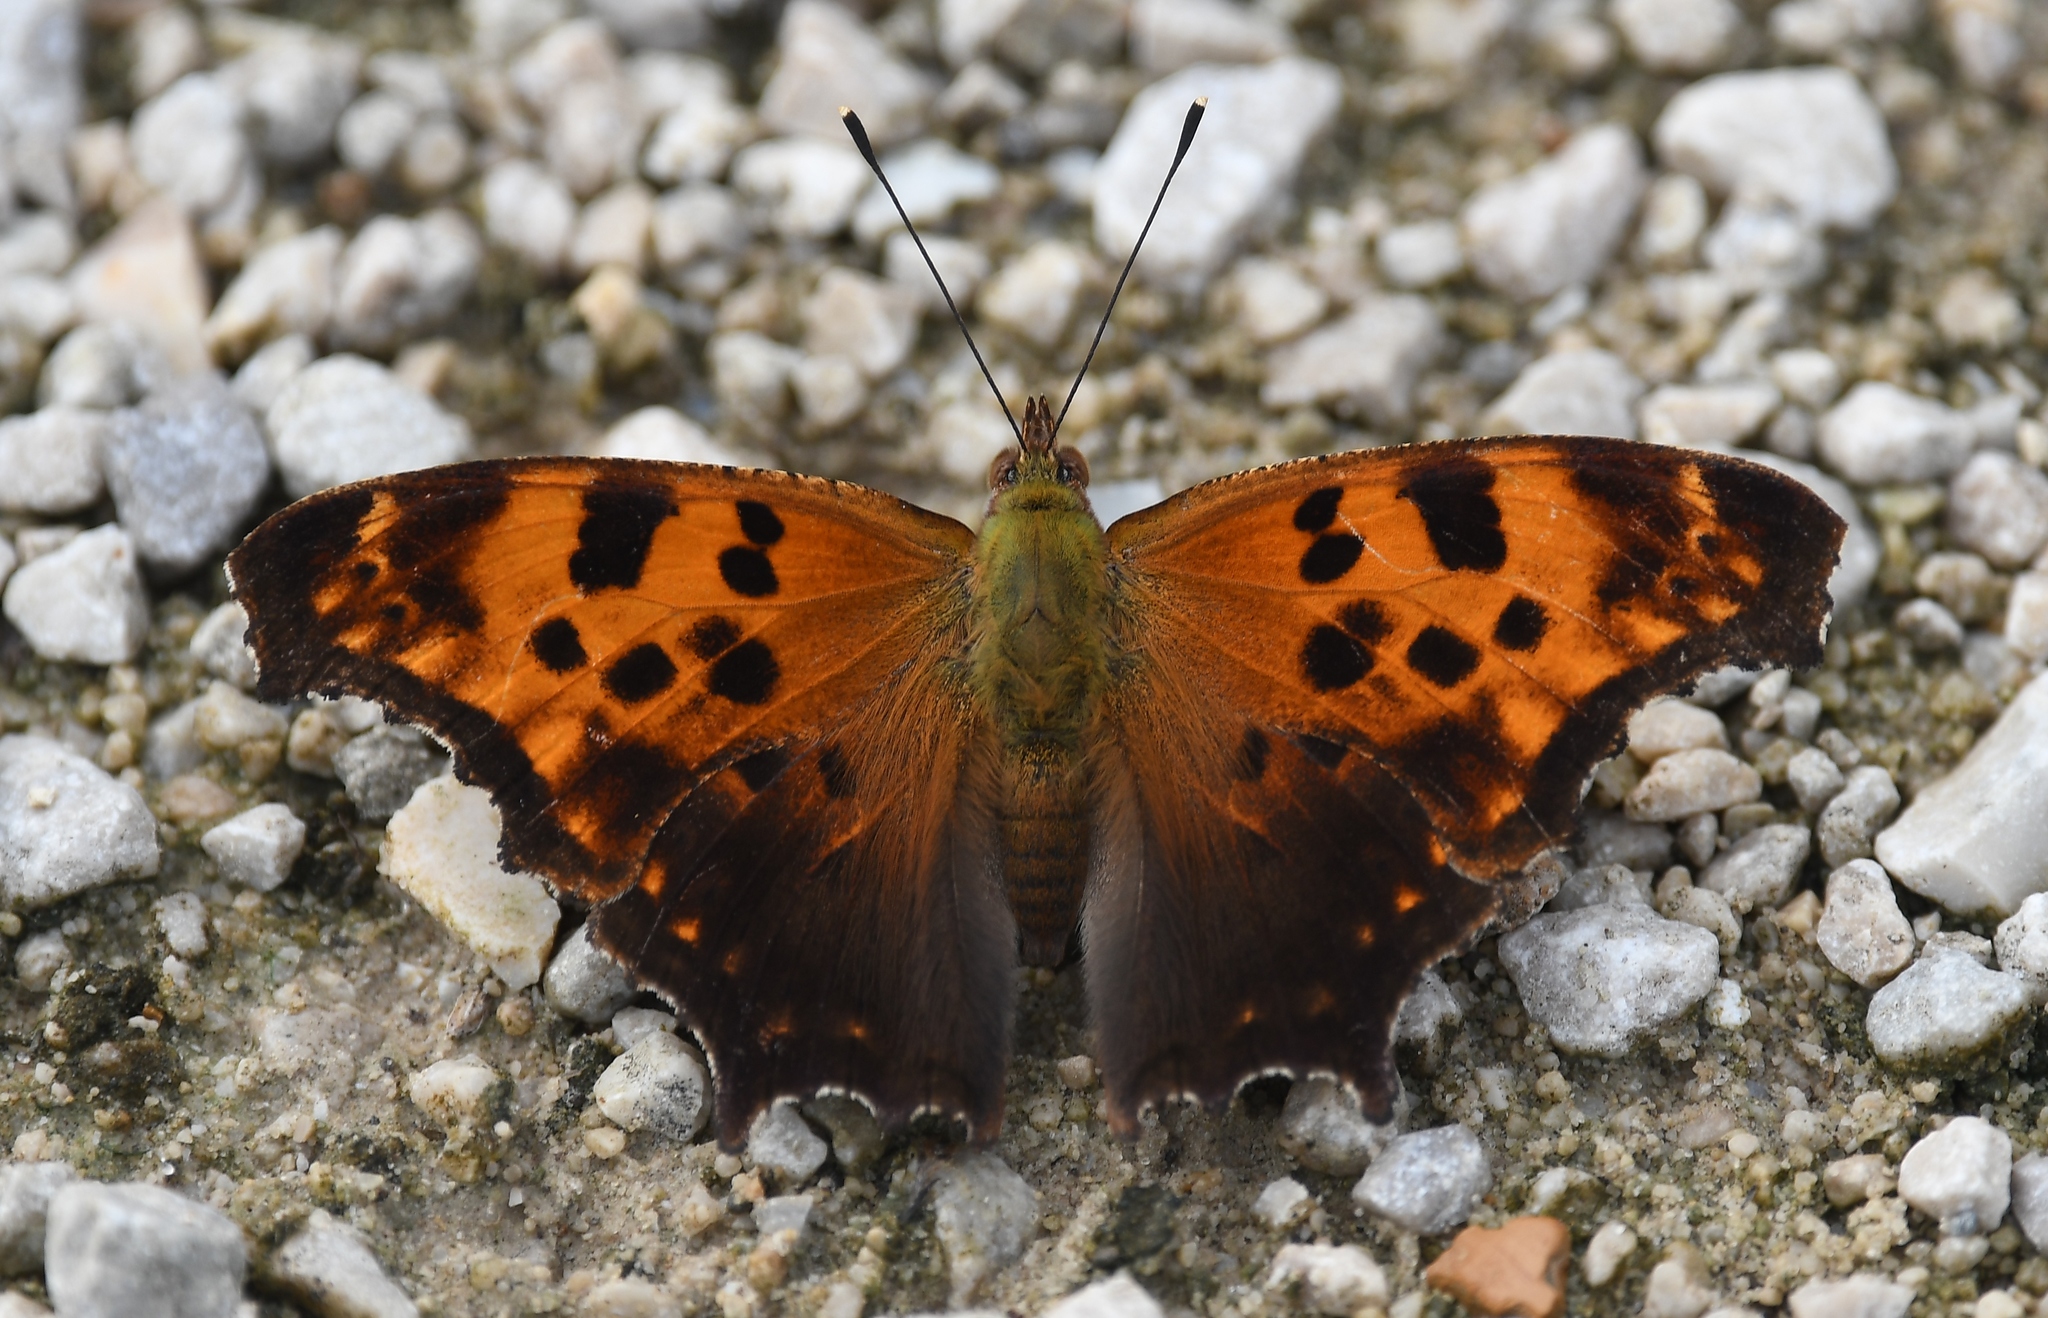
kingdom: Animalia
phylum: Arthropoda
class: Insecta
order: Lepidoptera
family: Nymphalidae
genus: Polygonia
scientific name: Polygonia comma
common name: Eastern comma
